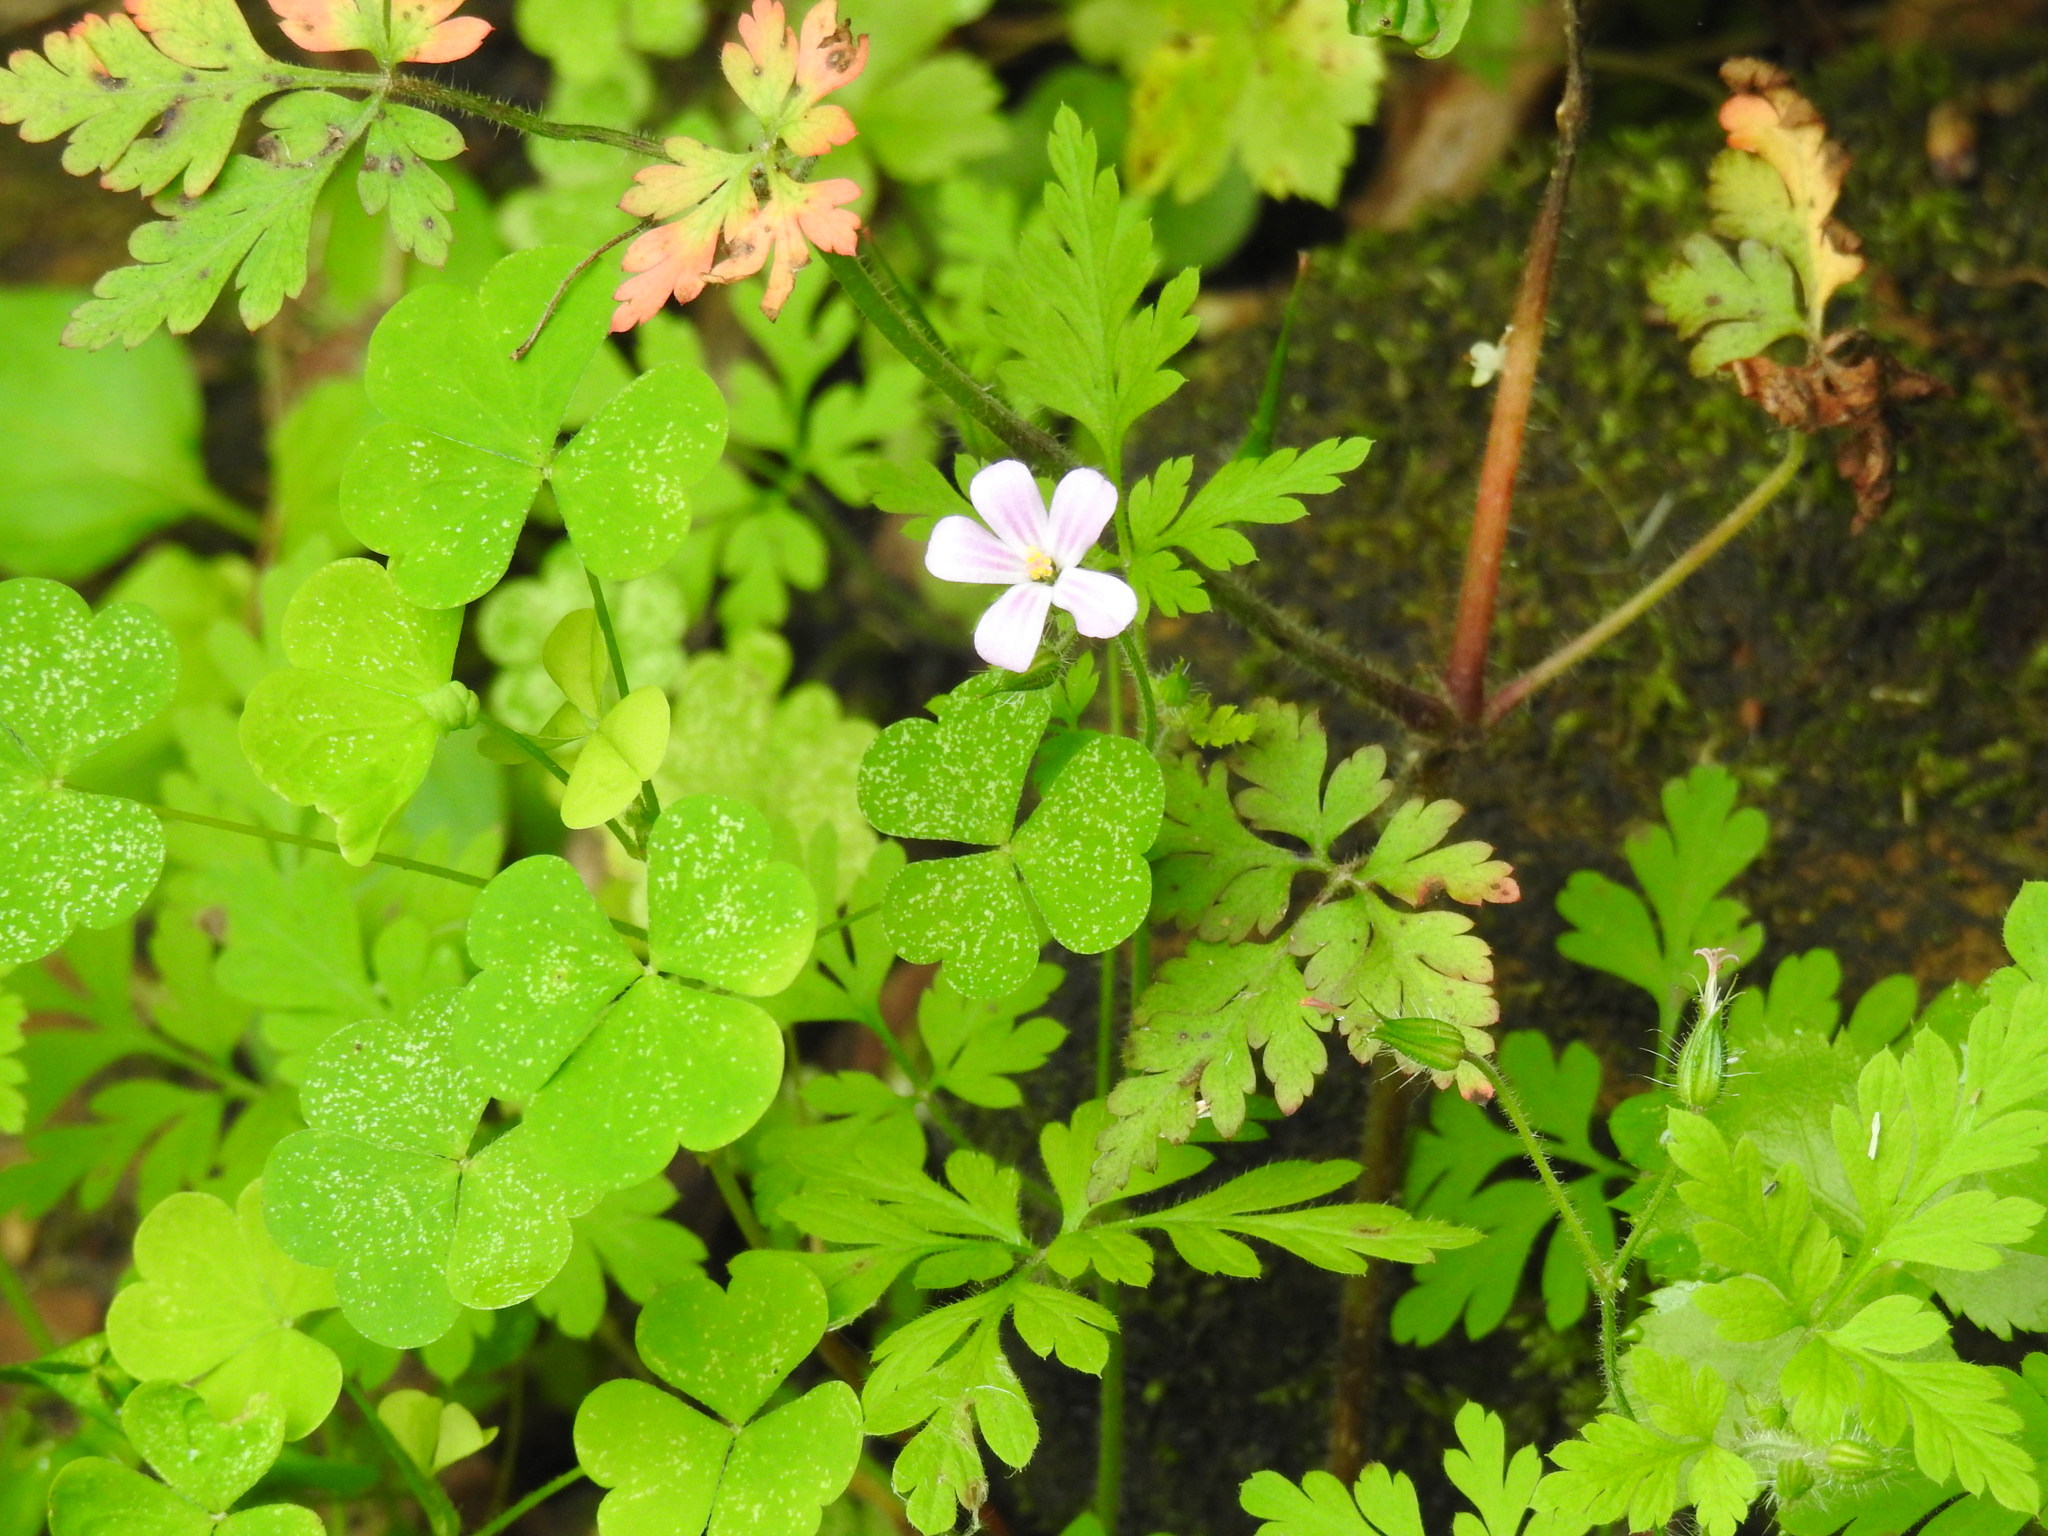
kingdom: Plantae
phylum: Tracheophyta
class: Magnoliopsida
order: Geraniales
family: Geraniaceae
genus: Geranium
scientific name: Geranium robertianum
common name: Herb-robert
